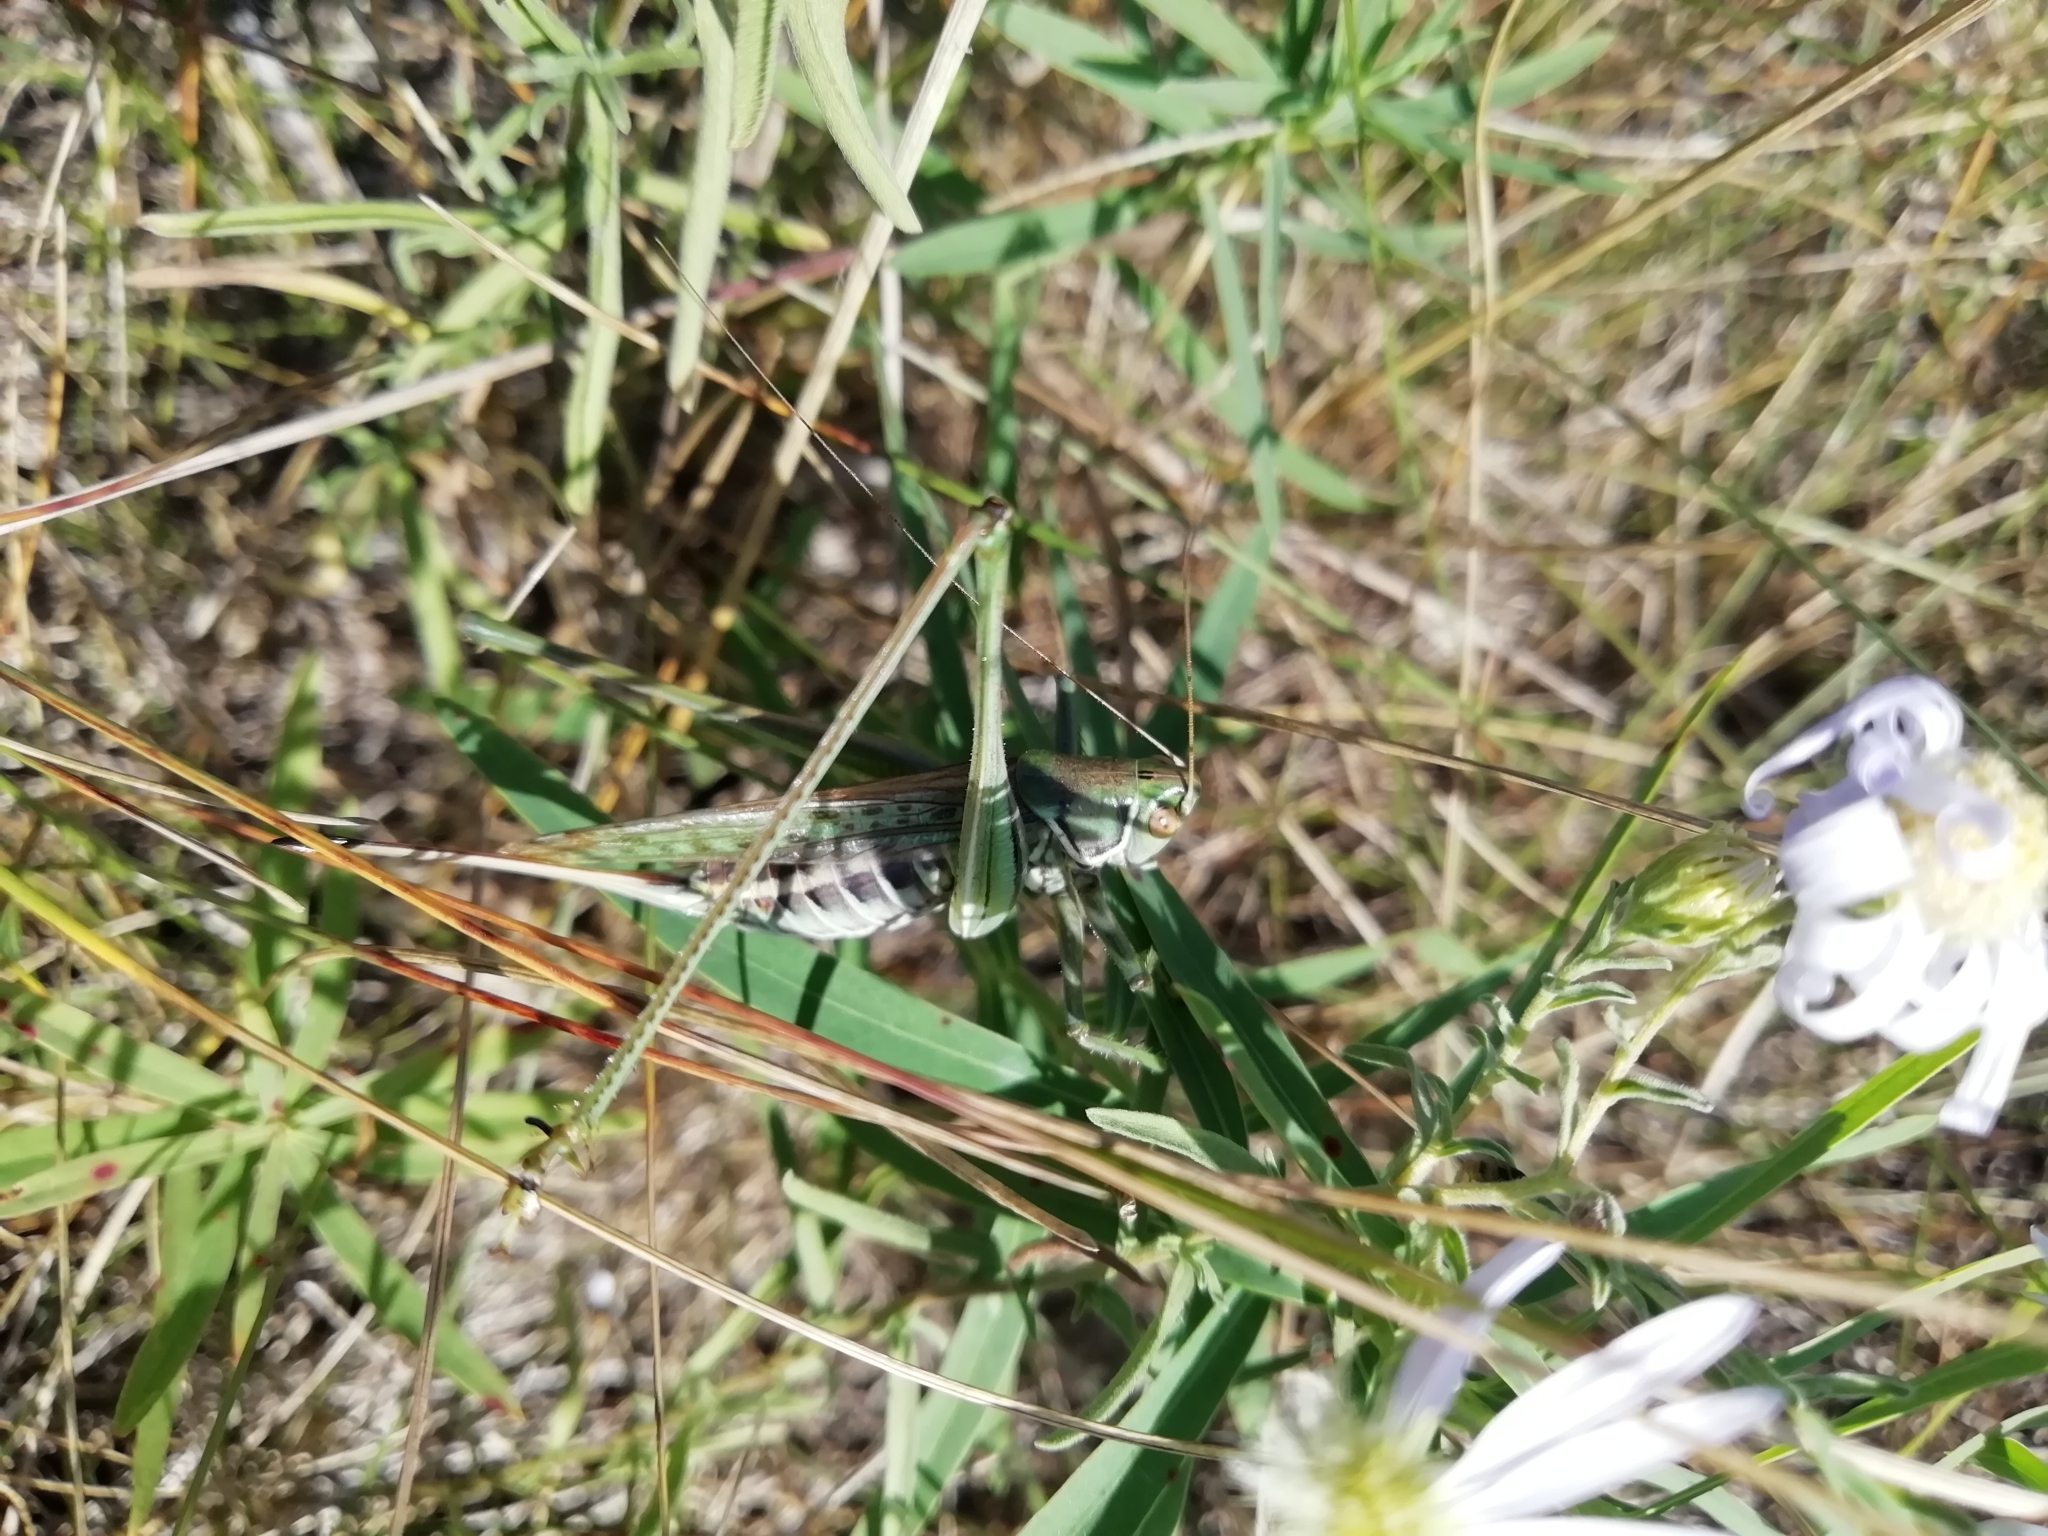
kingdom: Animalia
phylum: Arthropoda
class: Insecta
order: Orthoptera
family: Tettigoniidae
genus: Gampsocleis
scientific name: Gampsocleis glabra
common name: Heath bushcricket
